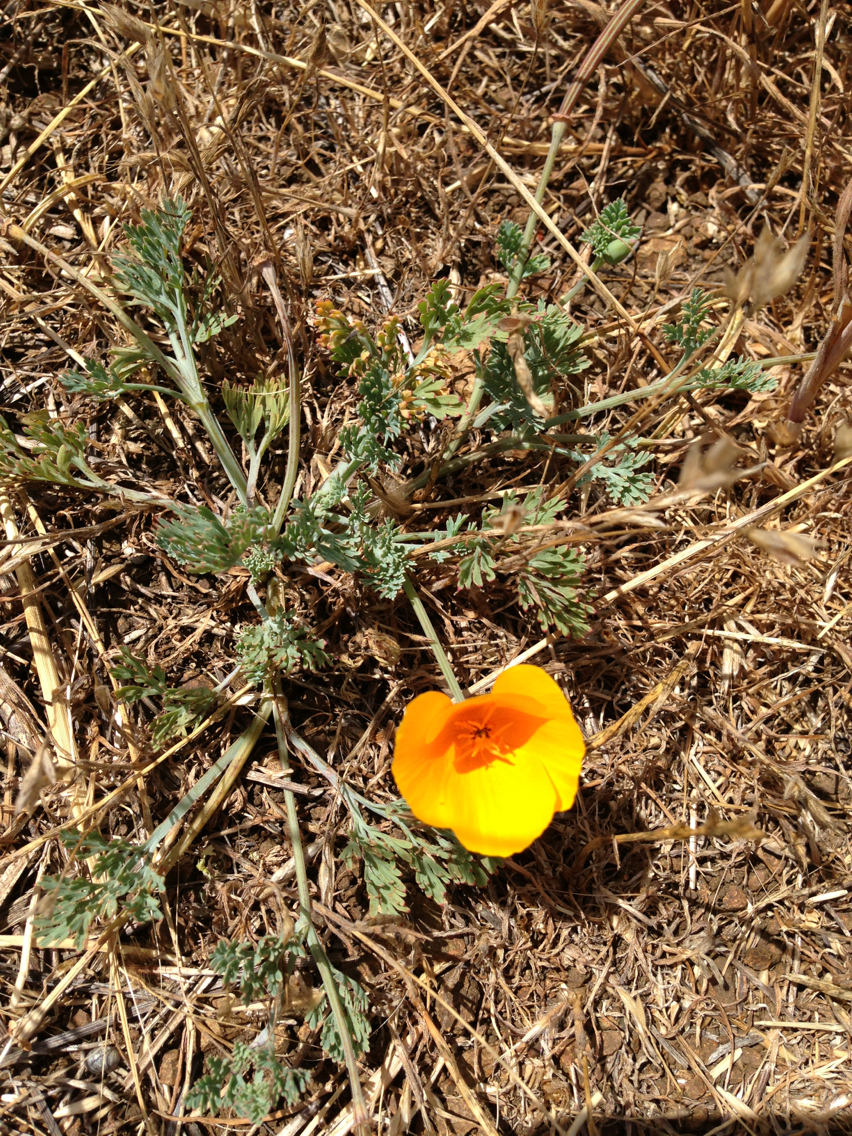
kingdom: Plantae
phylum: Tracheophyta
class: Magnoliopsida
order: Ranunculales
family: Papaveraceae
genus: Eschscholzia
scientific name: Eschscholzia californica
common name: California poppy
